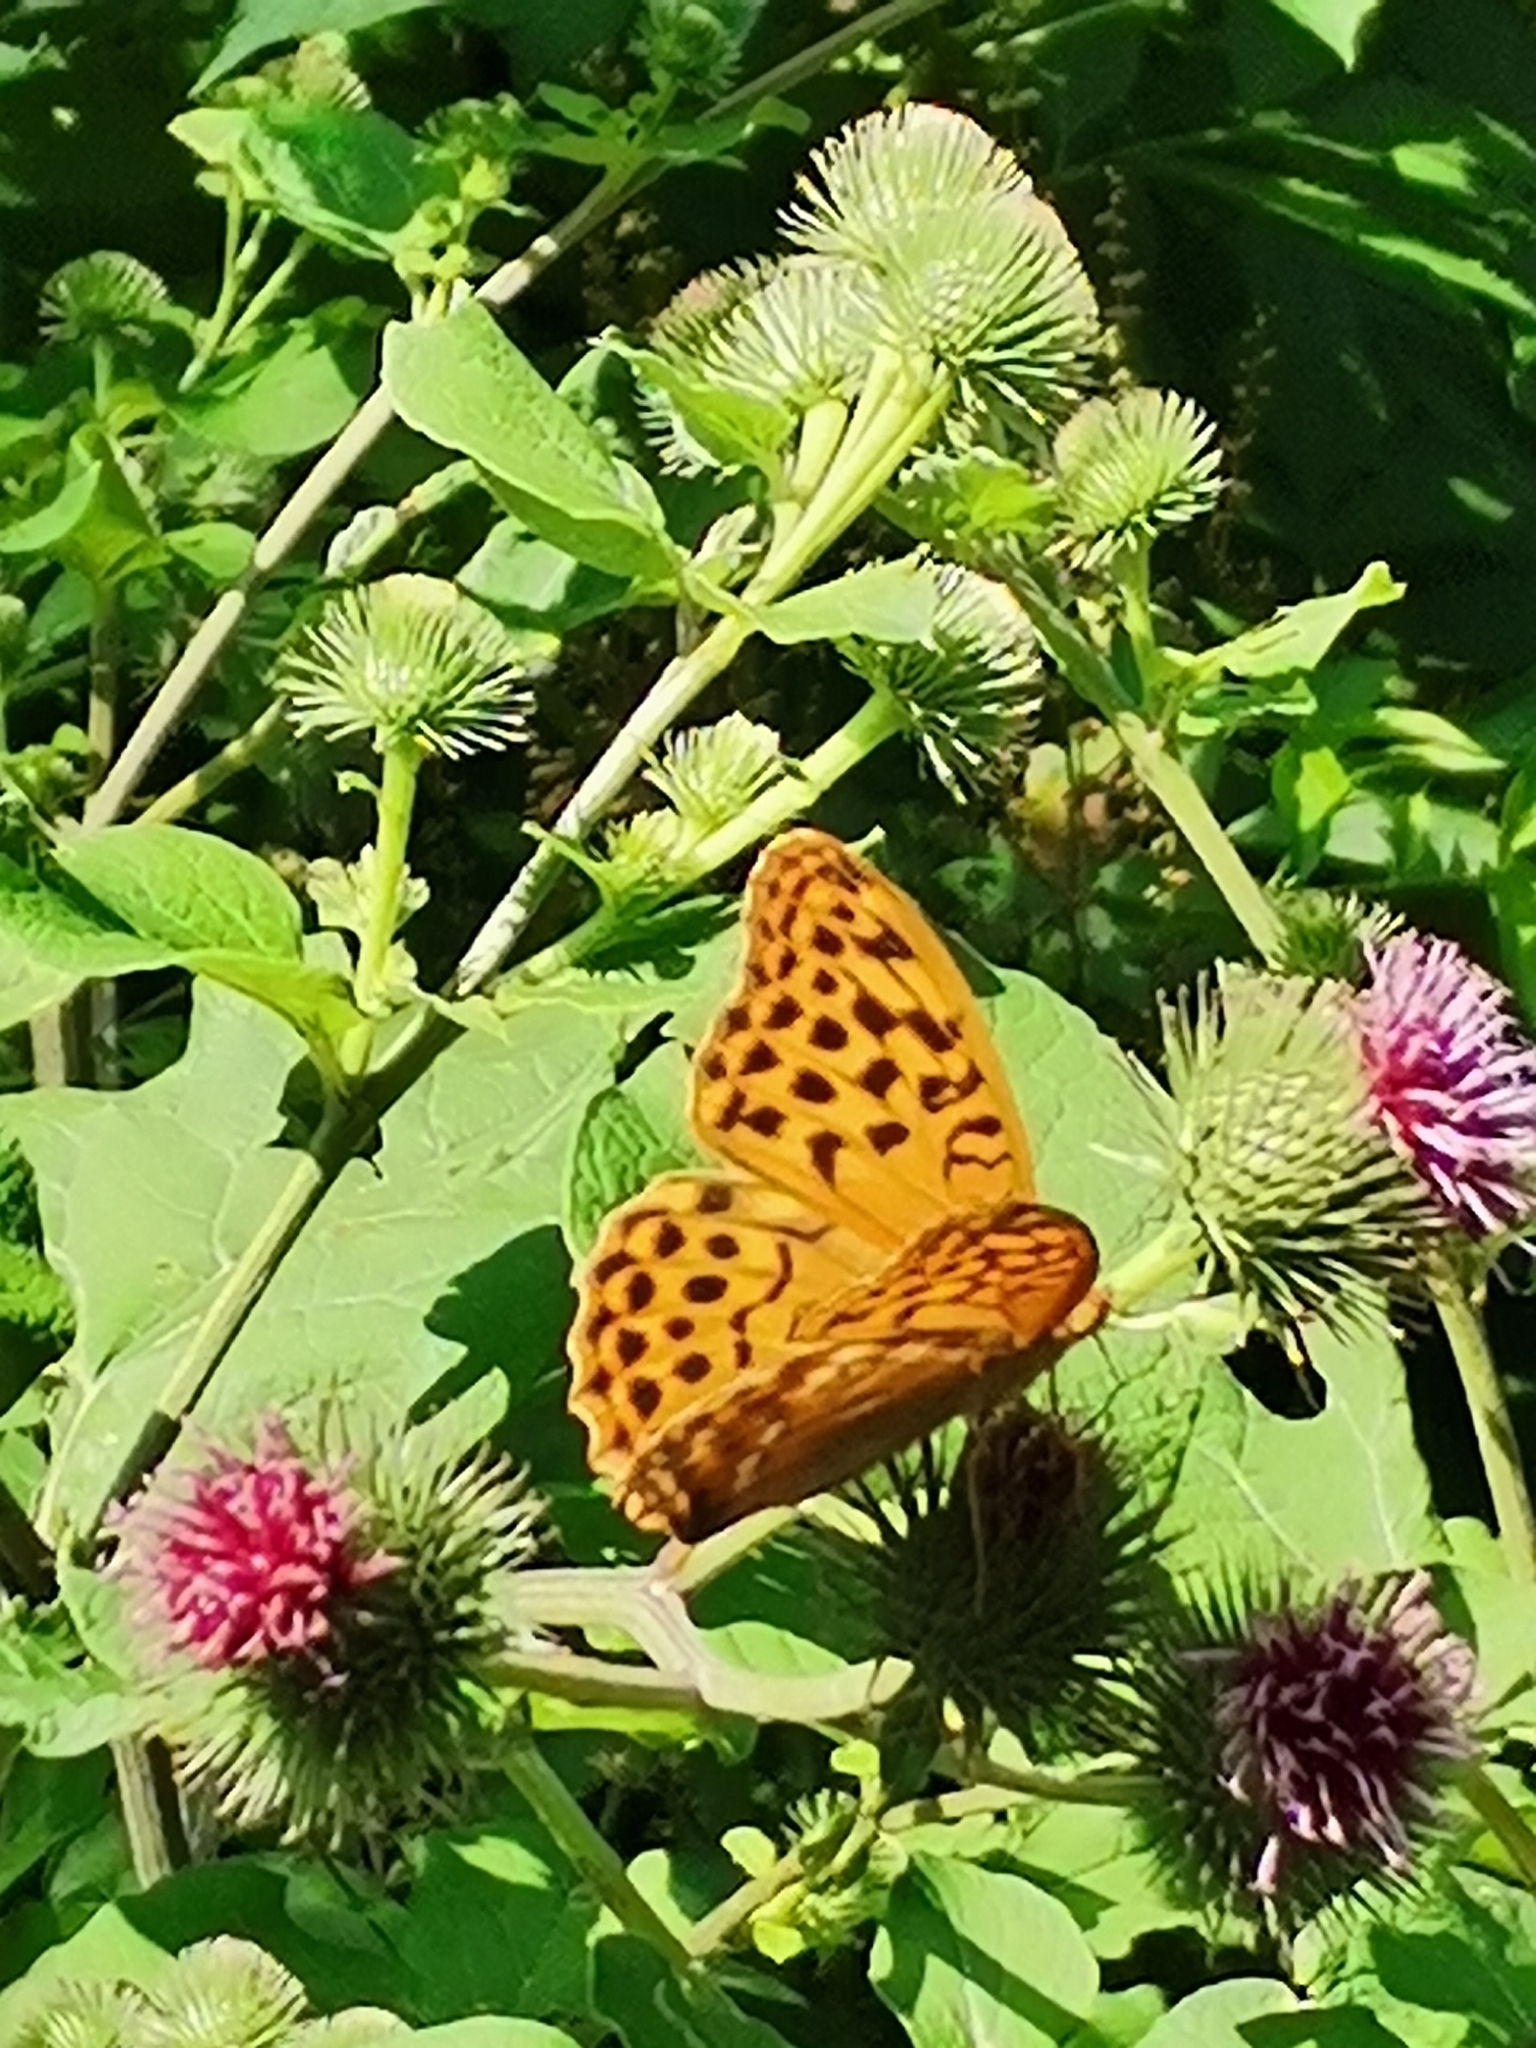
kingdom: Animalia
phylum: Arthropoda
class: Insecta
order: Lepidoptera
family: Nymphalidae
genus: Argynnis
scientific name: Argynnis paphia
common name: Silver-washed fritillary
